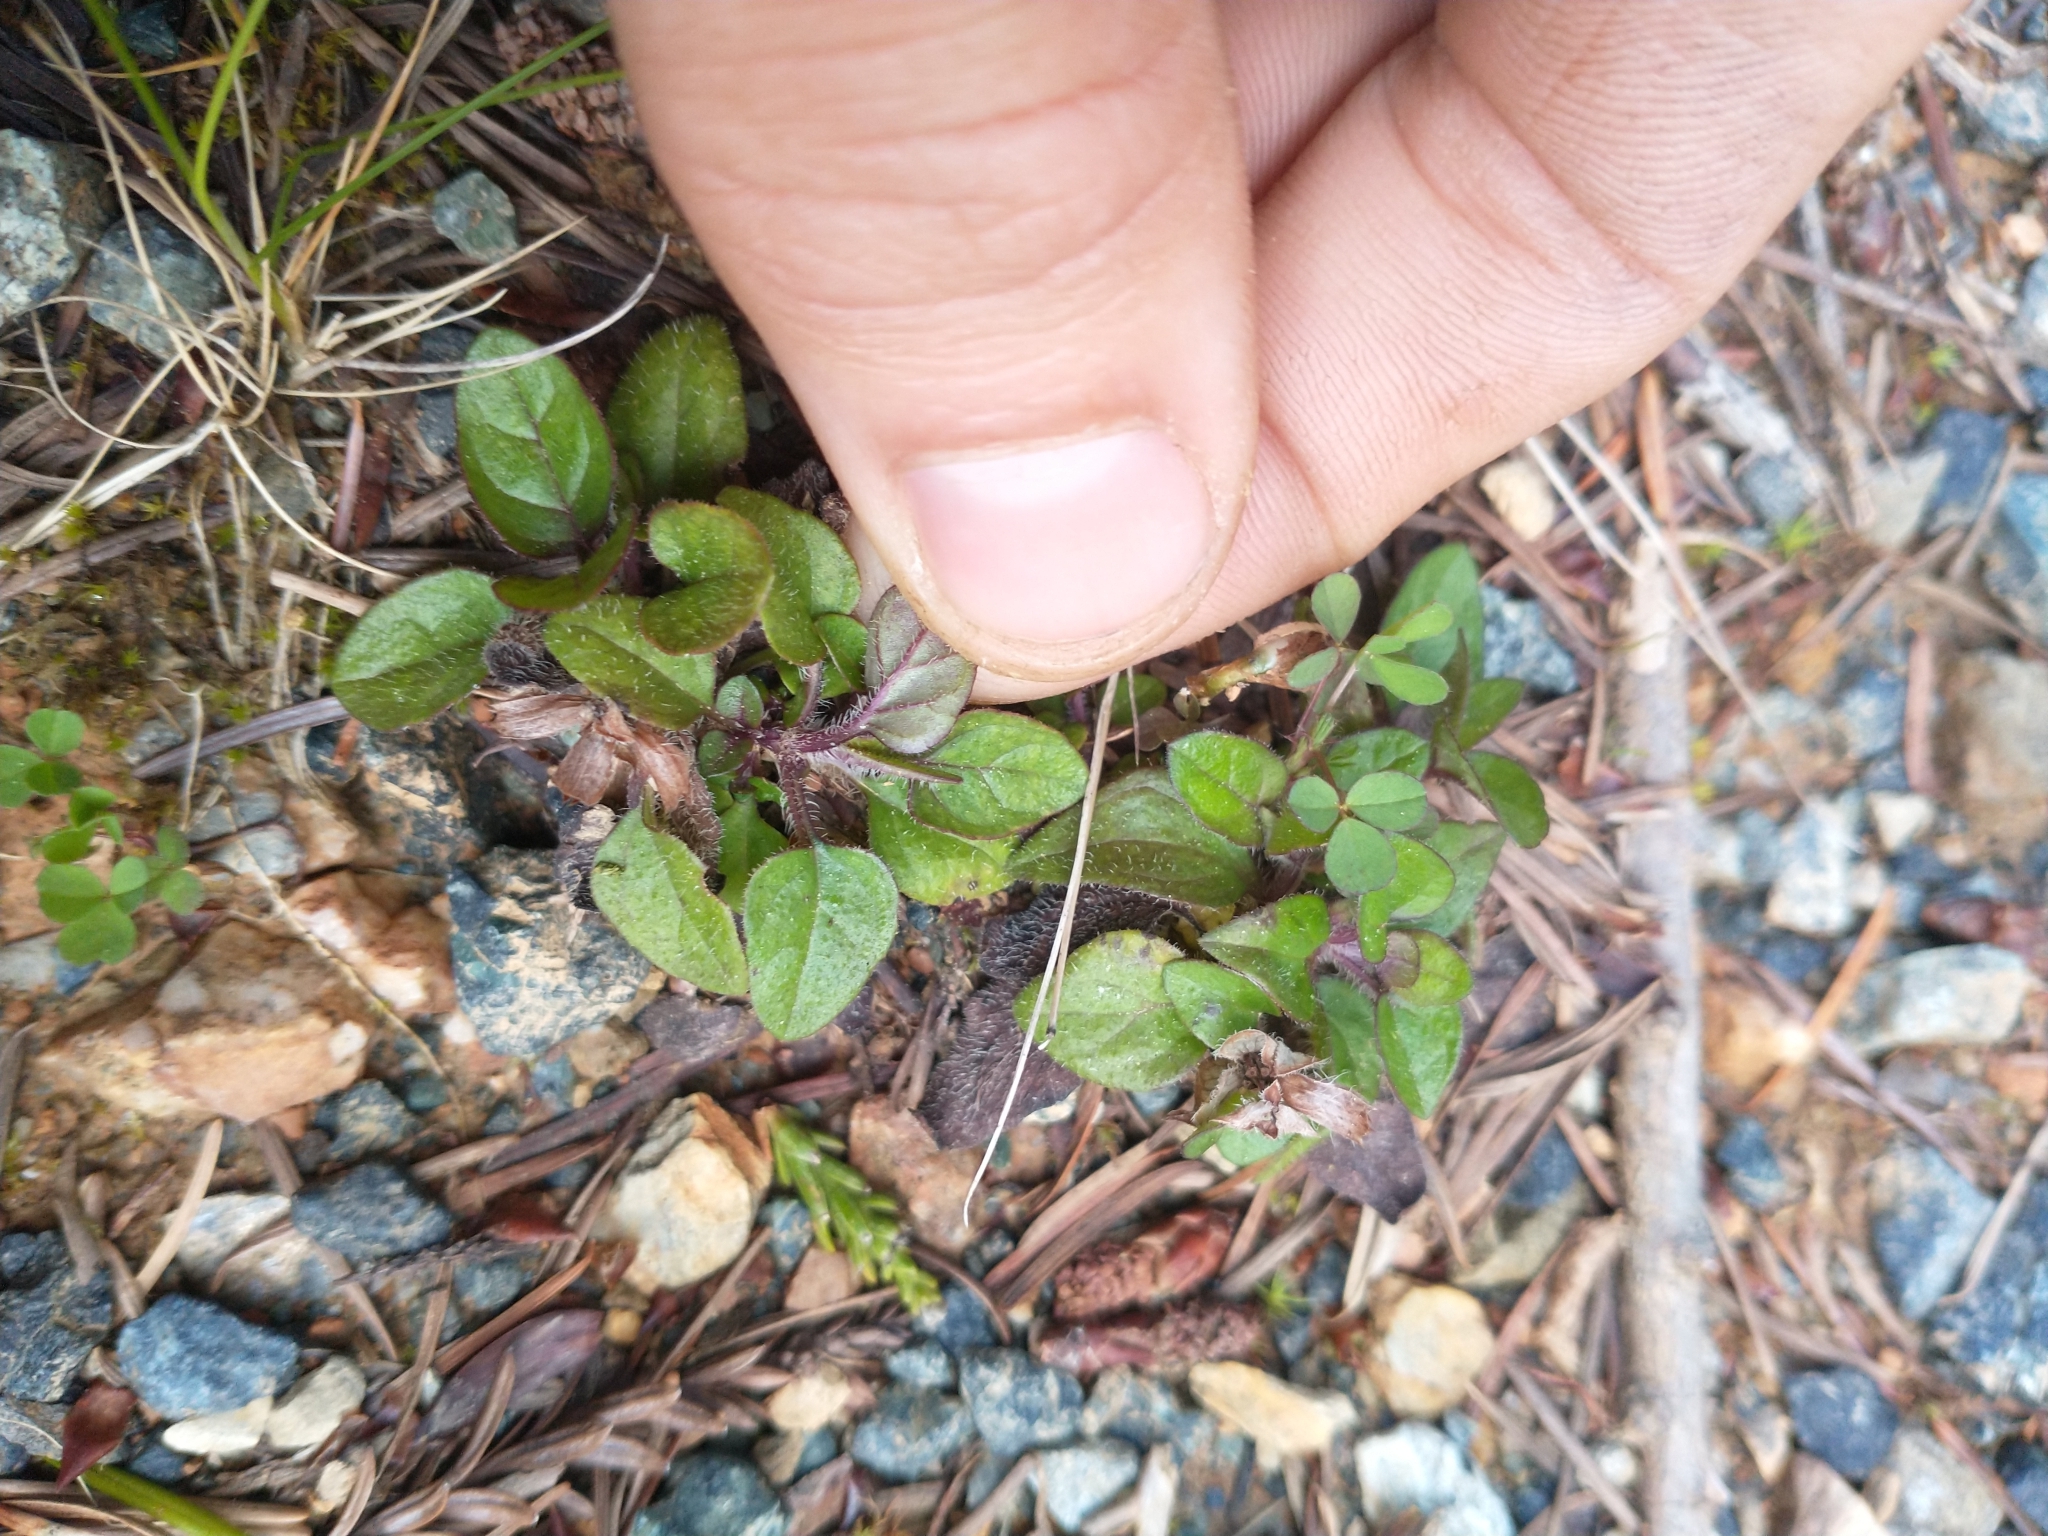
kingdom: Plantae
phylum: Tracheophyta
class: Magnoliopsida
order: Lamiales
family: Lamiaceae
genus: Prunella
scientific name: Prunella vulgaris
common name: Heal-all
